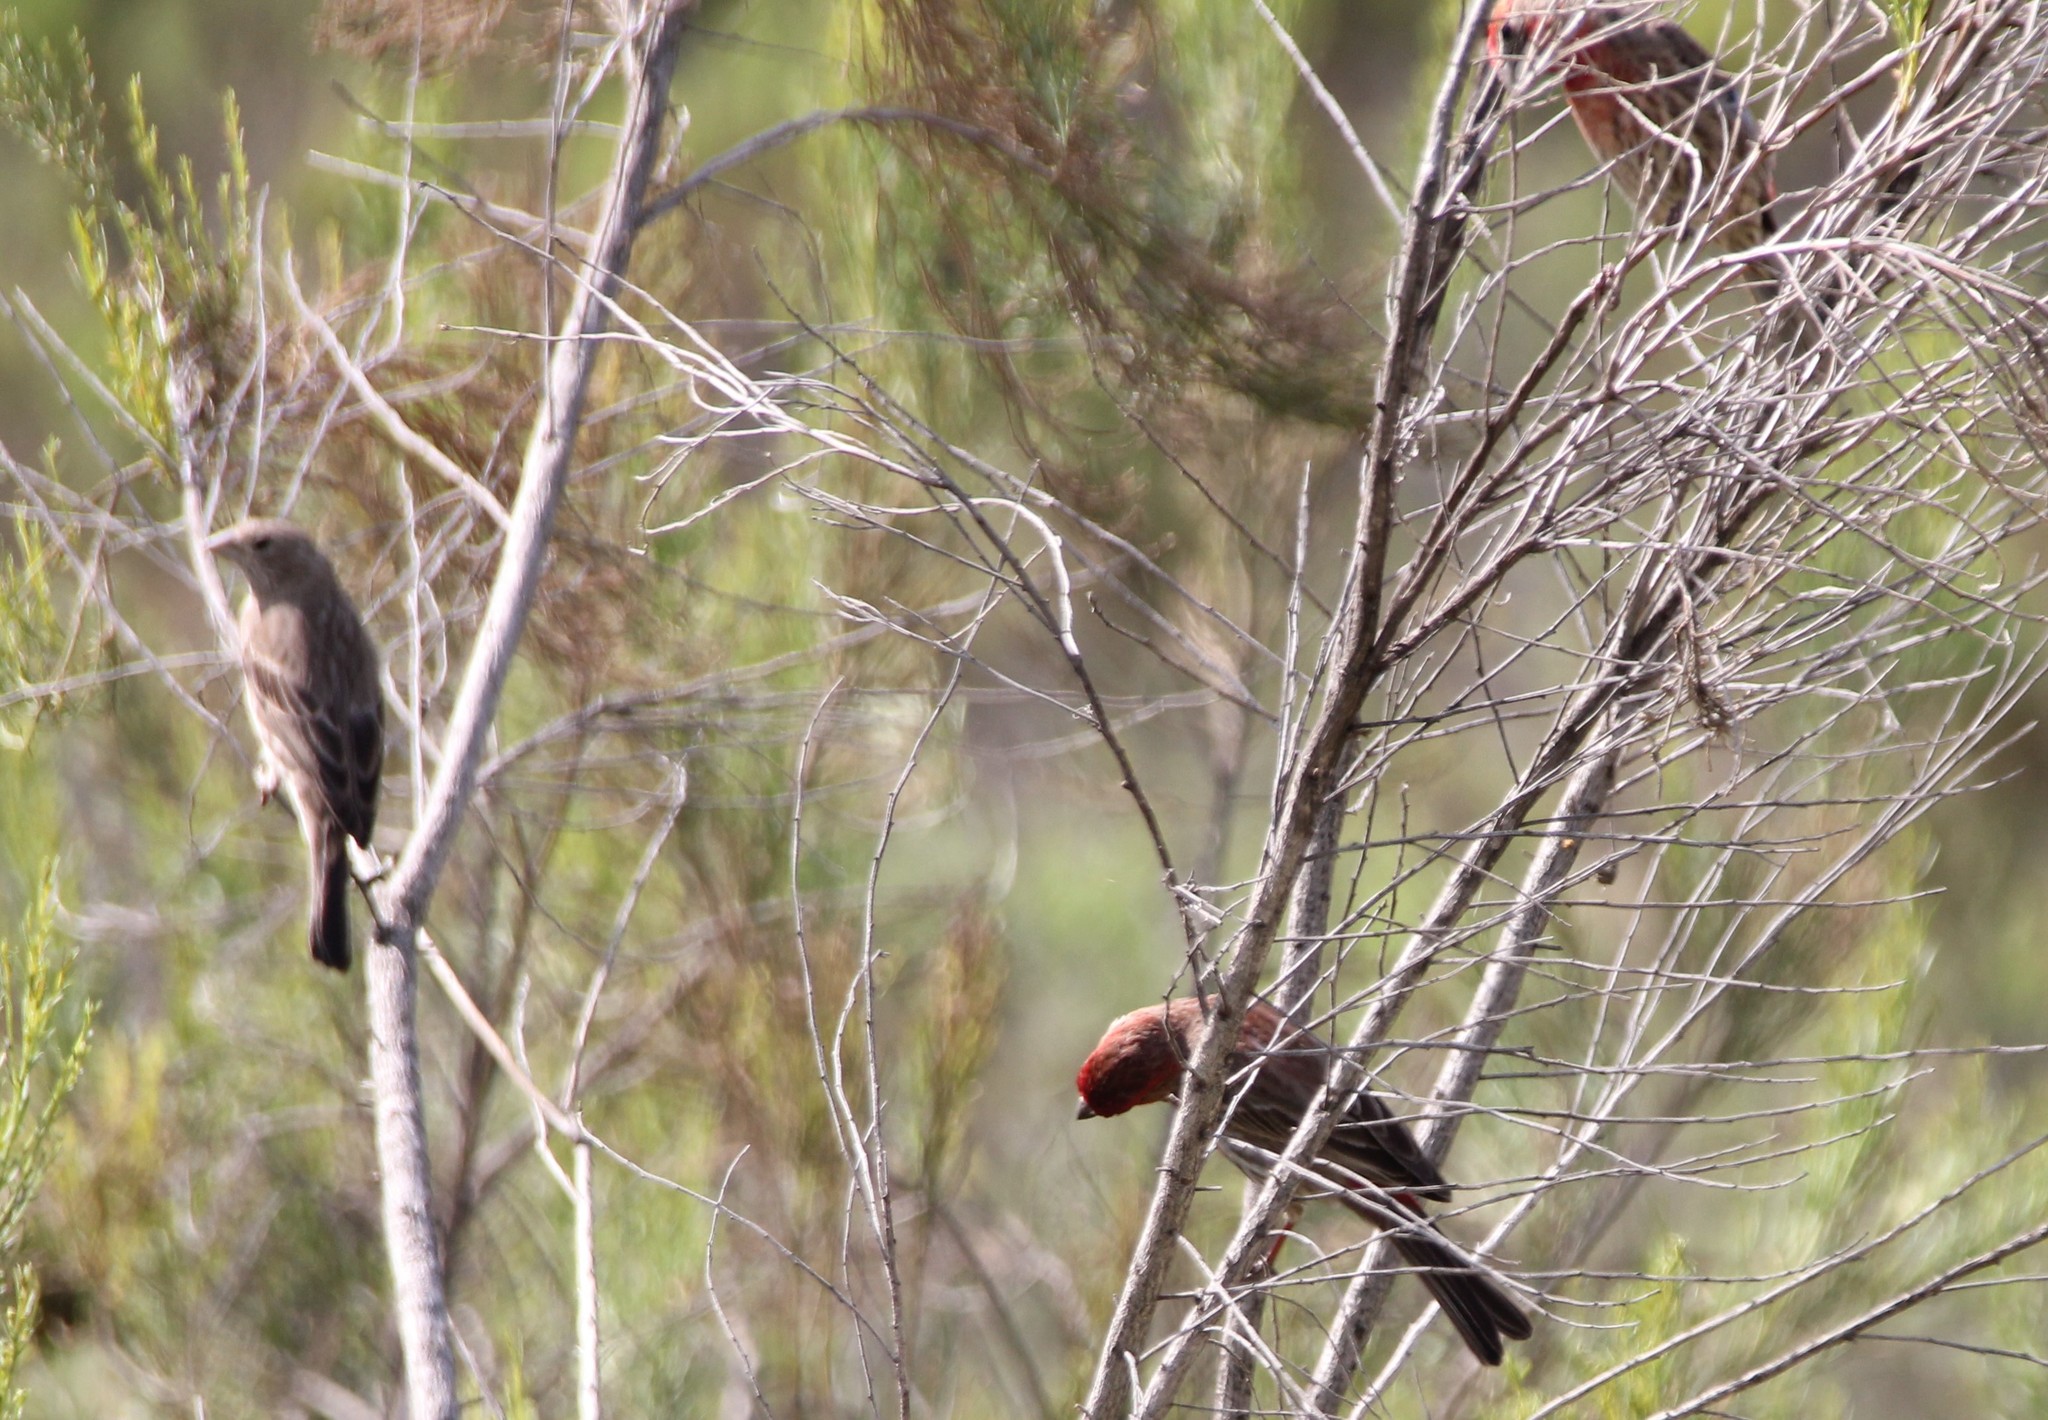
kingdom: Animalia
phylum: Chordata
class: Aves
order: Passeriformes
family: Fringillidae
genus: Haemorhous
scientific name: Haemorhous mexicanus
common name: House finch
